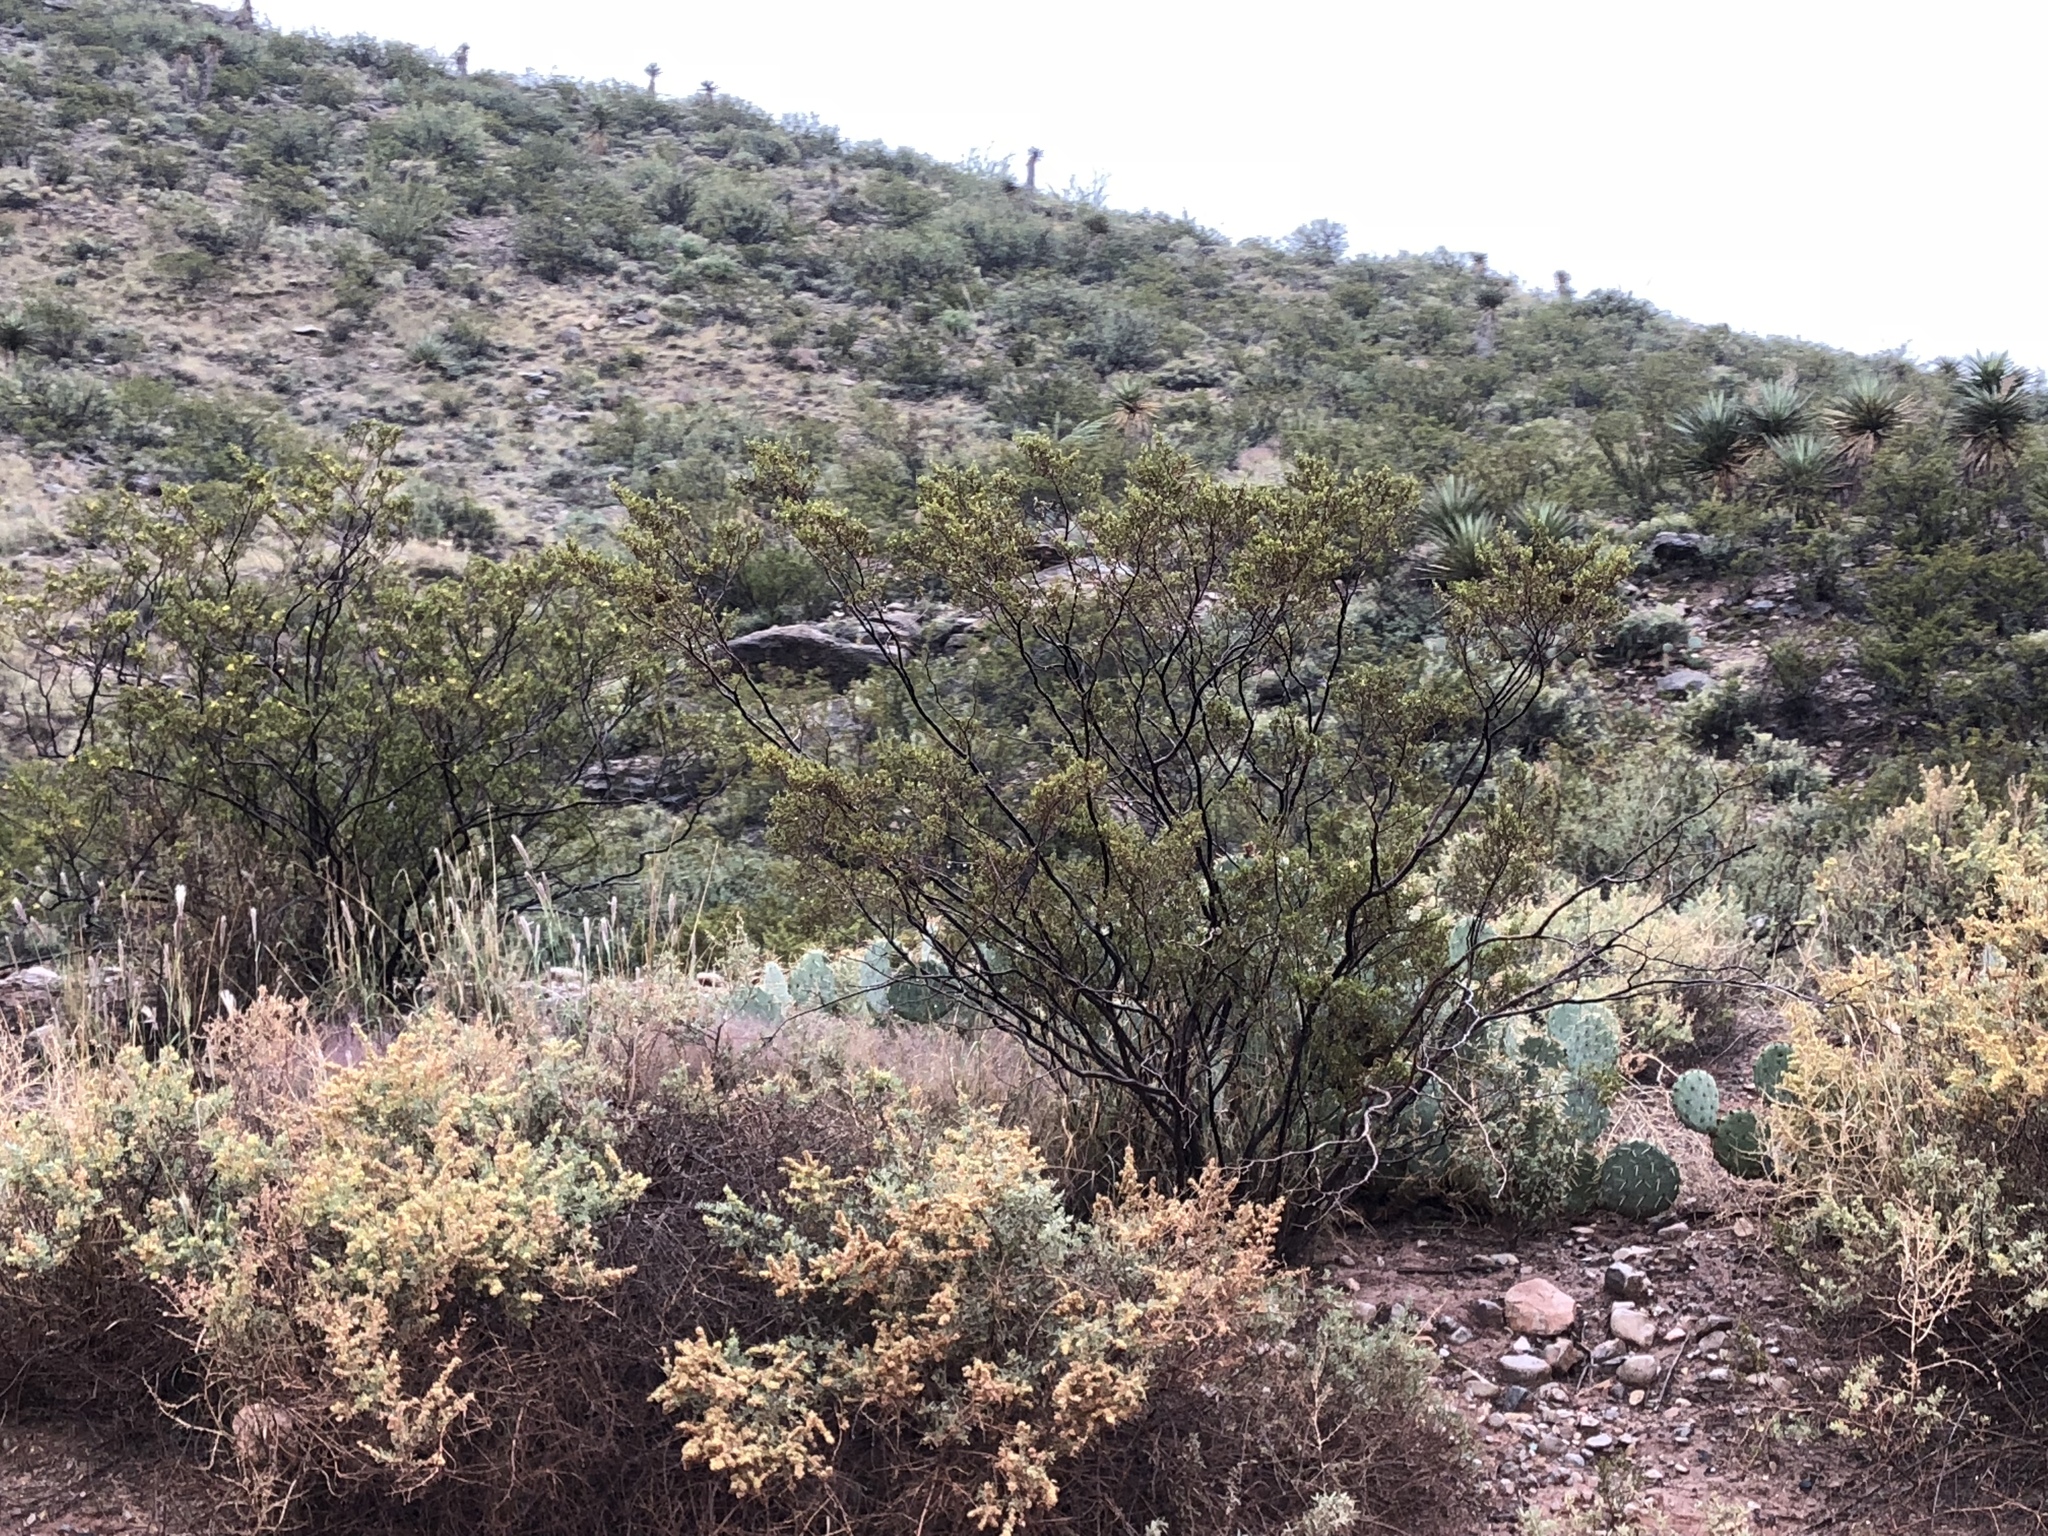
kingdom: Plantae
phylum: Tracheophyta
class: Magnoliopsida
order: Zygophyllales
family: Zygophyllaceae
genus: Larrea
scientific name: Larrea tridentata
